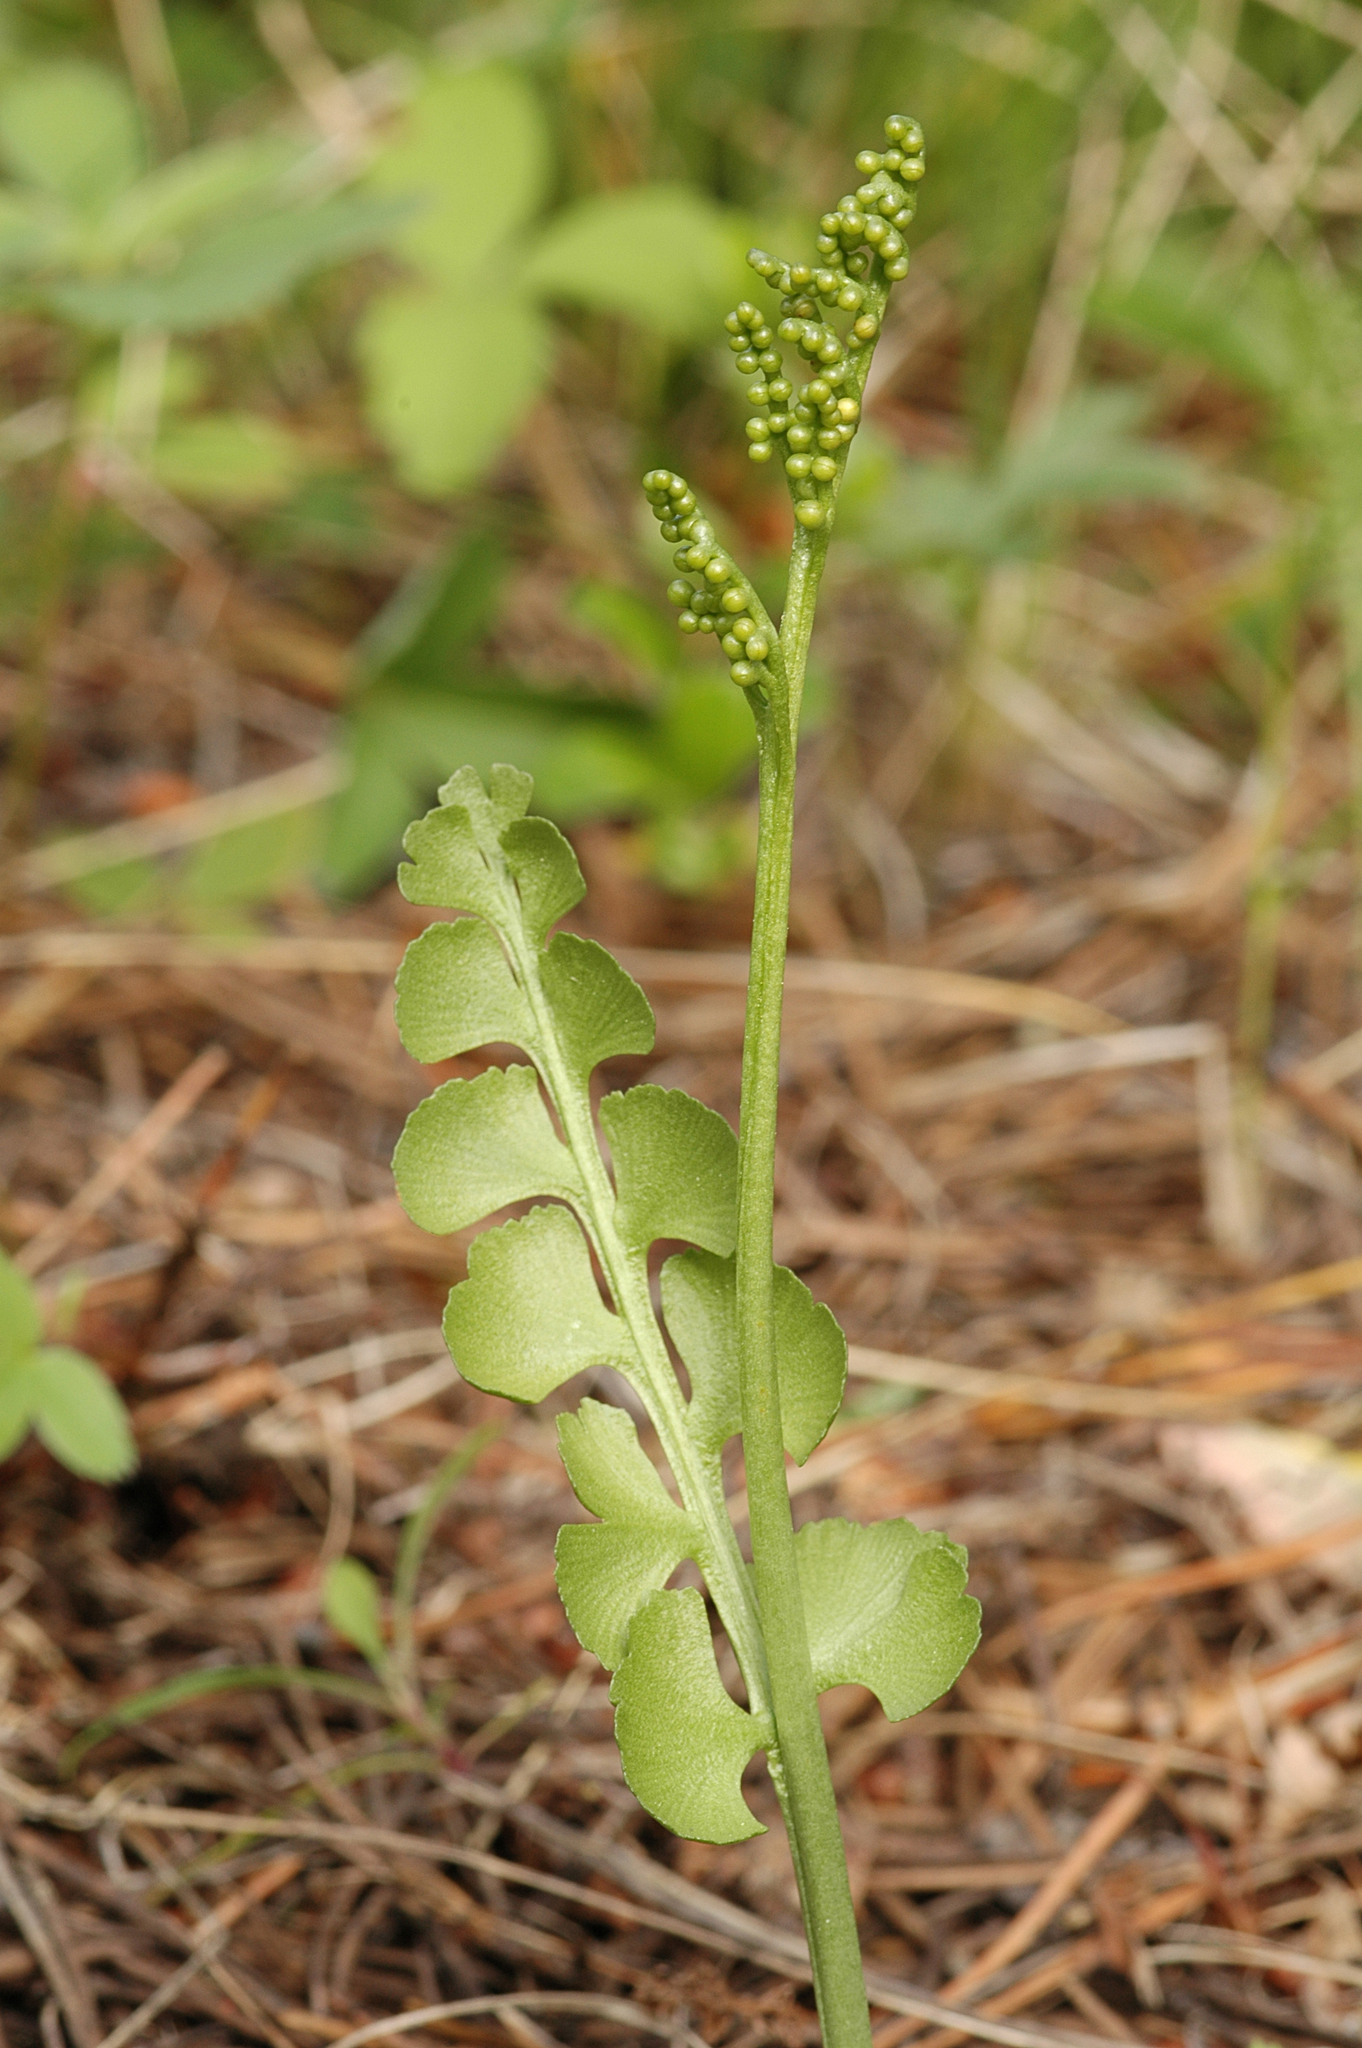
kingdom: Plantae
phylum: Tracheophyta
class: Polypodiopsida
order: Ophioglossales
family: Ophioglossaceae
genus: Botrychium
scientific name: Botrychium neolunaria
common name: New world moonwort
